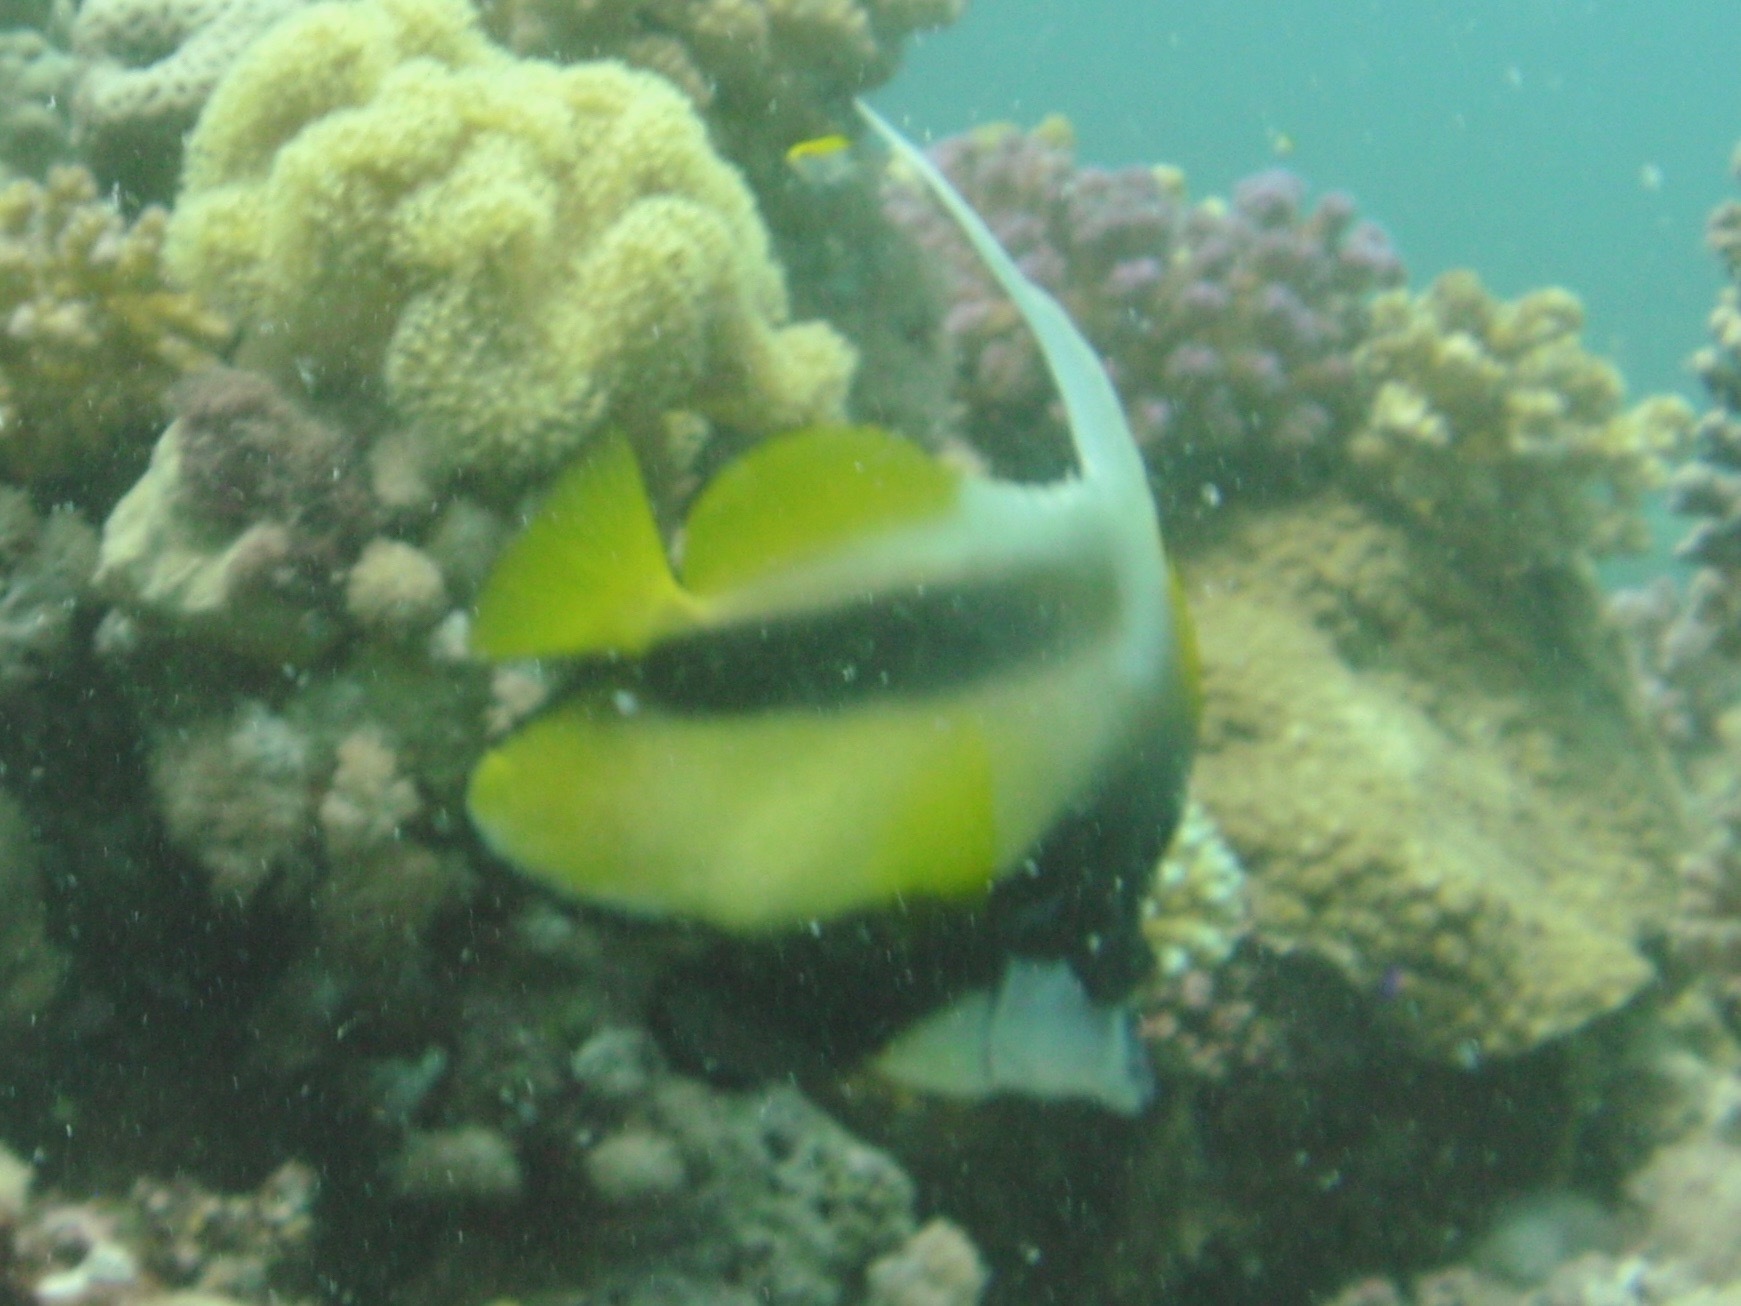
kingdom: Animalia
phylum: Chordata
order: Perciformes
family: Chaetodontidae
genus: Heniochus
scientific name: Heniochus intermedius
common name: Red sea bannerfish
